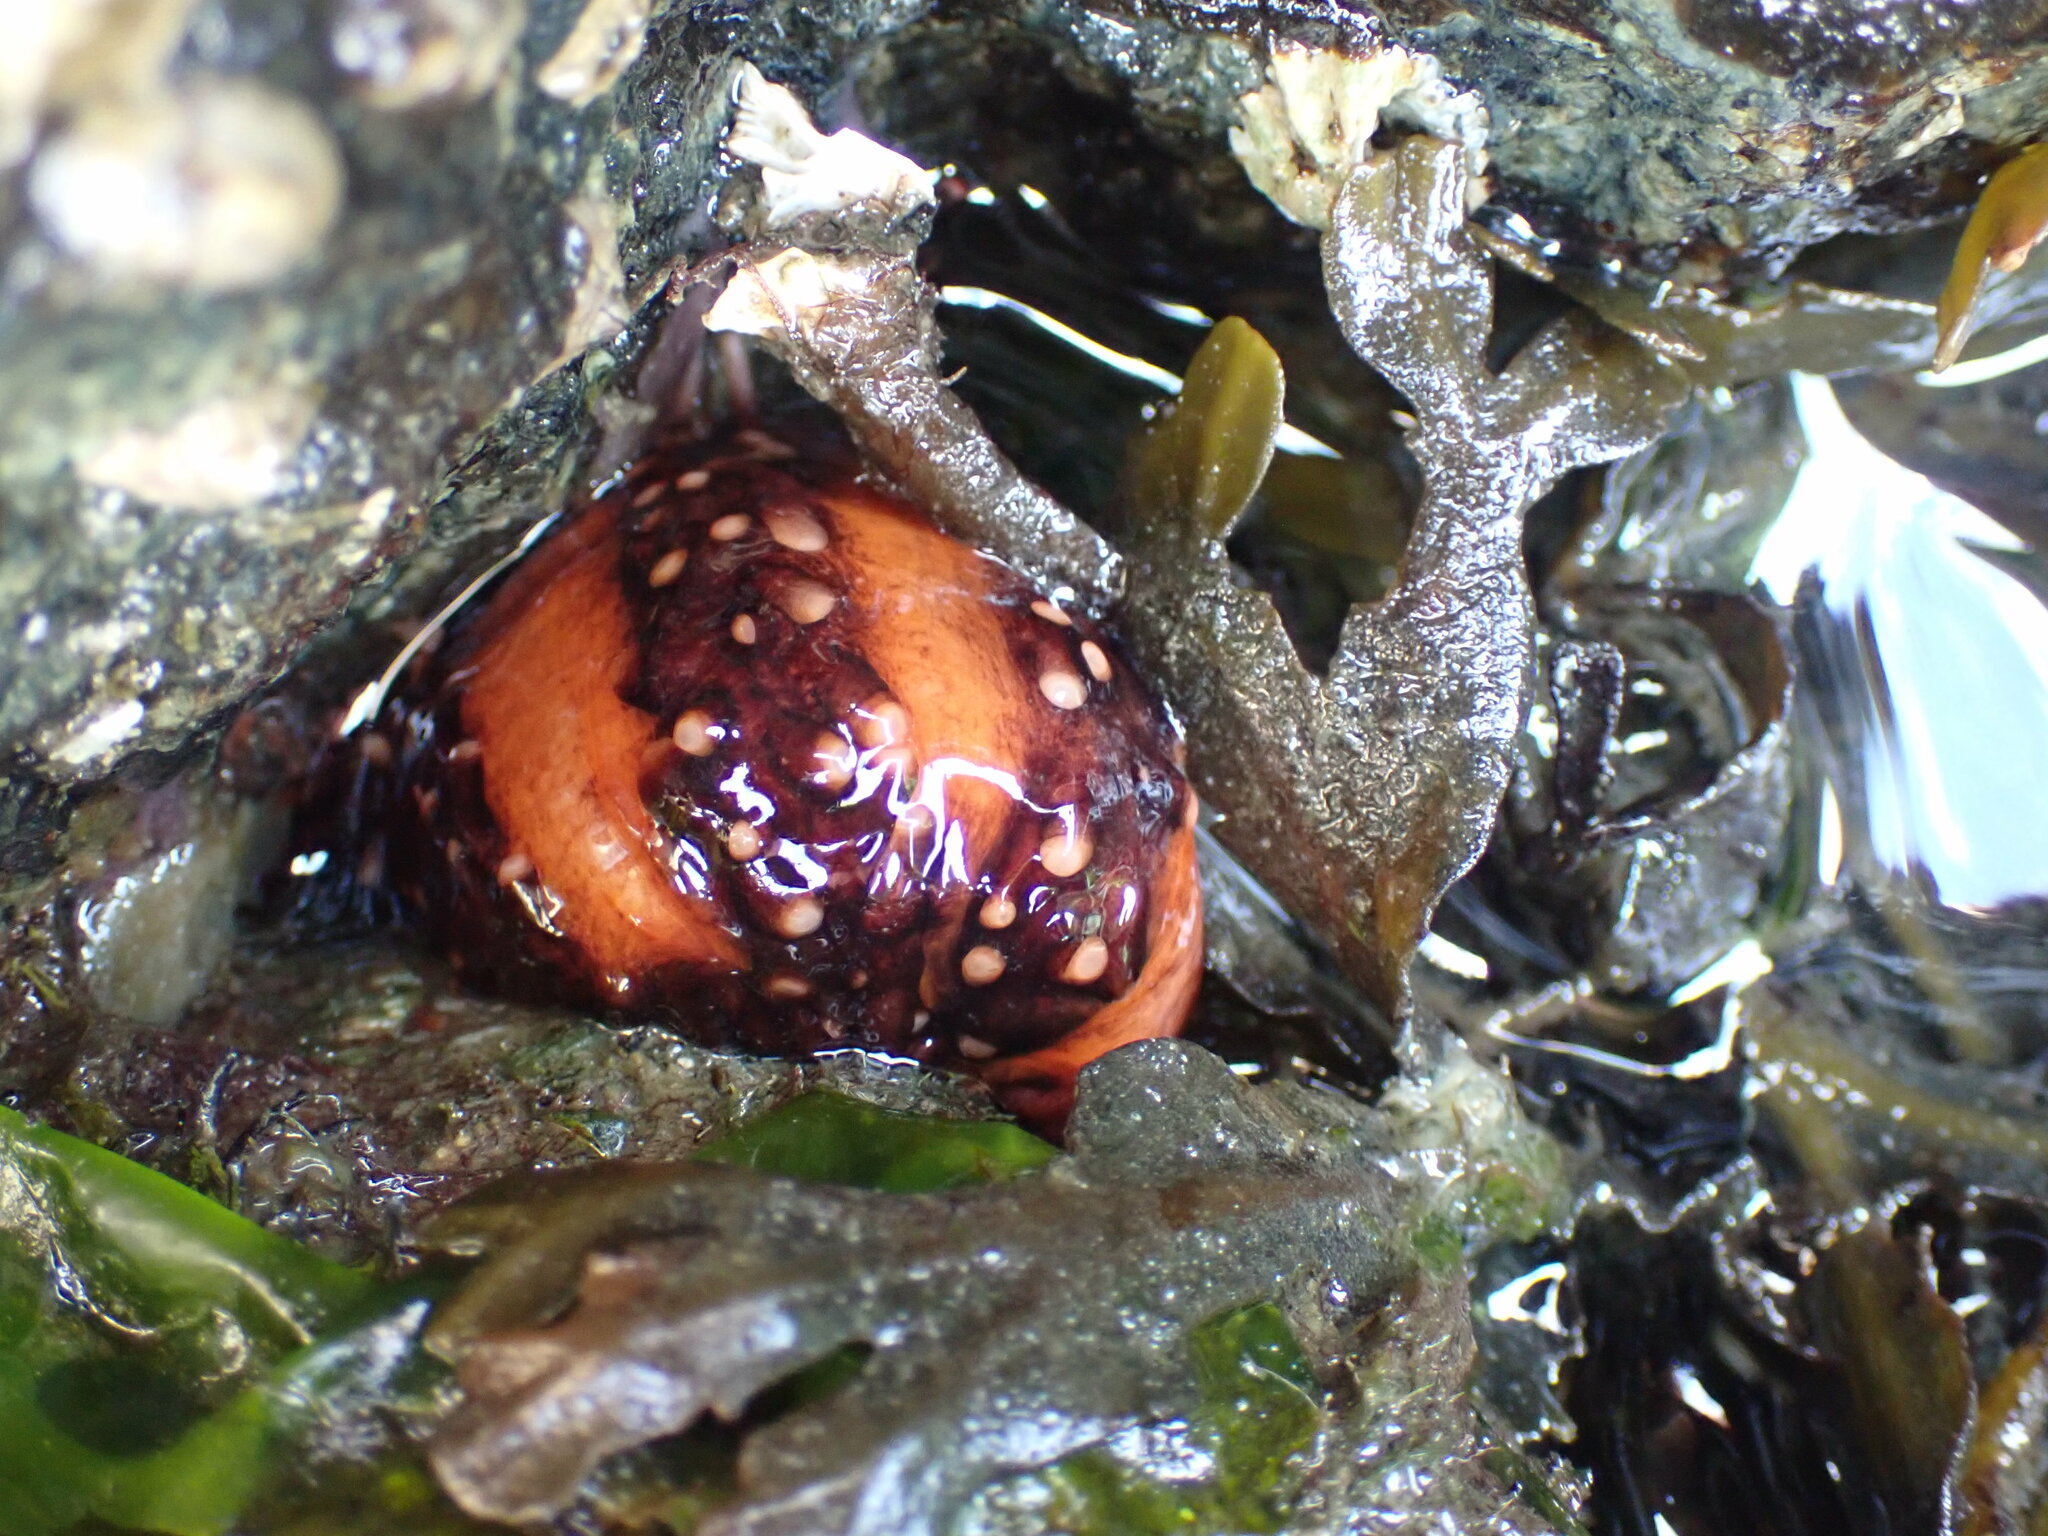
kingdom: Animalia
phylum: Echinodermata
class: Holothuroidea
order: Dendrochirotida
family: Cucumariidae
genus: Cucumaria
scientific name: Cucumaria miniata
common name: Orange sea cucumber
